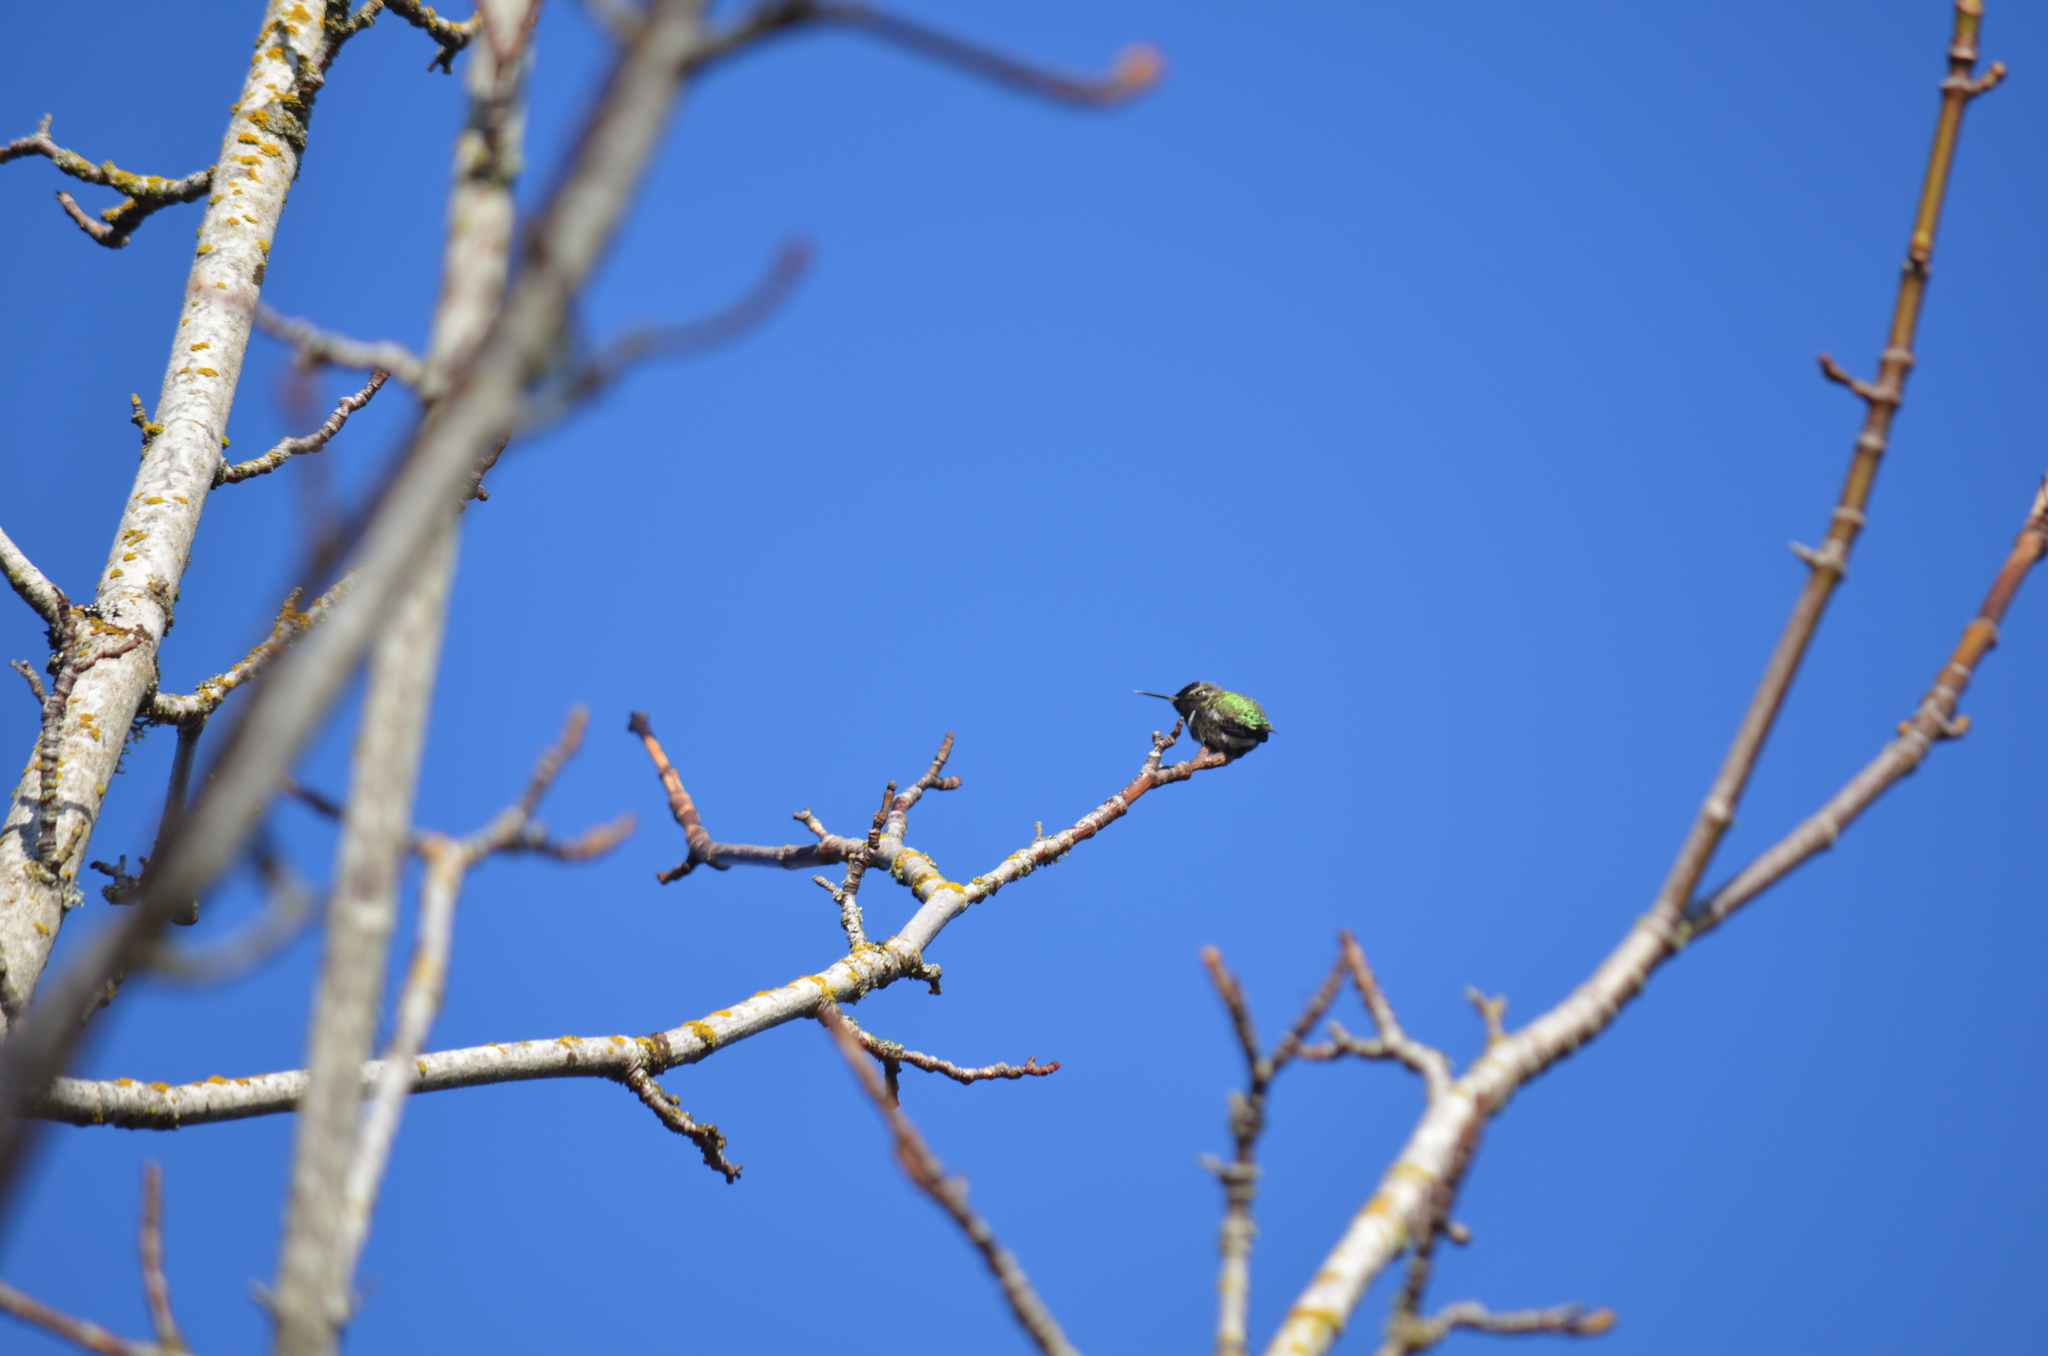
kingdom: Animalia
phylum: Chordata
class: Aves
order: Apodiformes
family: Trochilidae
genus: Calypte
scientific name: Calypte anna
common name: Anna's hummingbird
